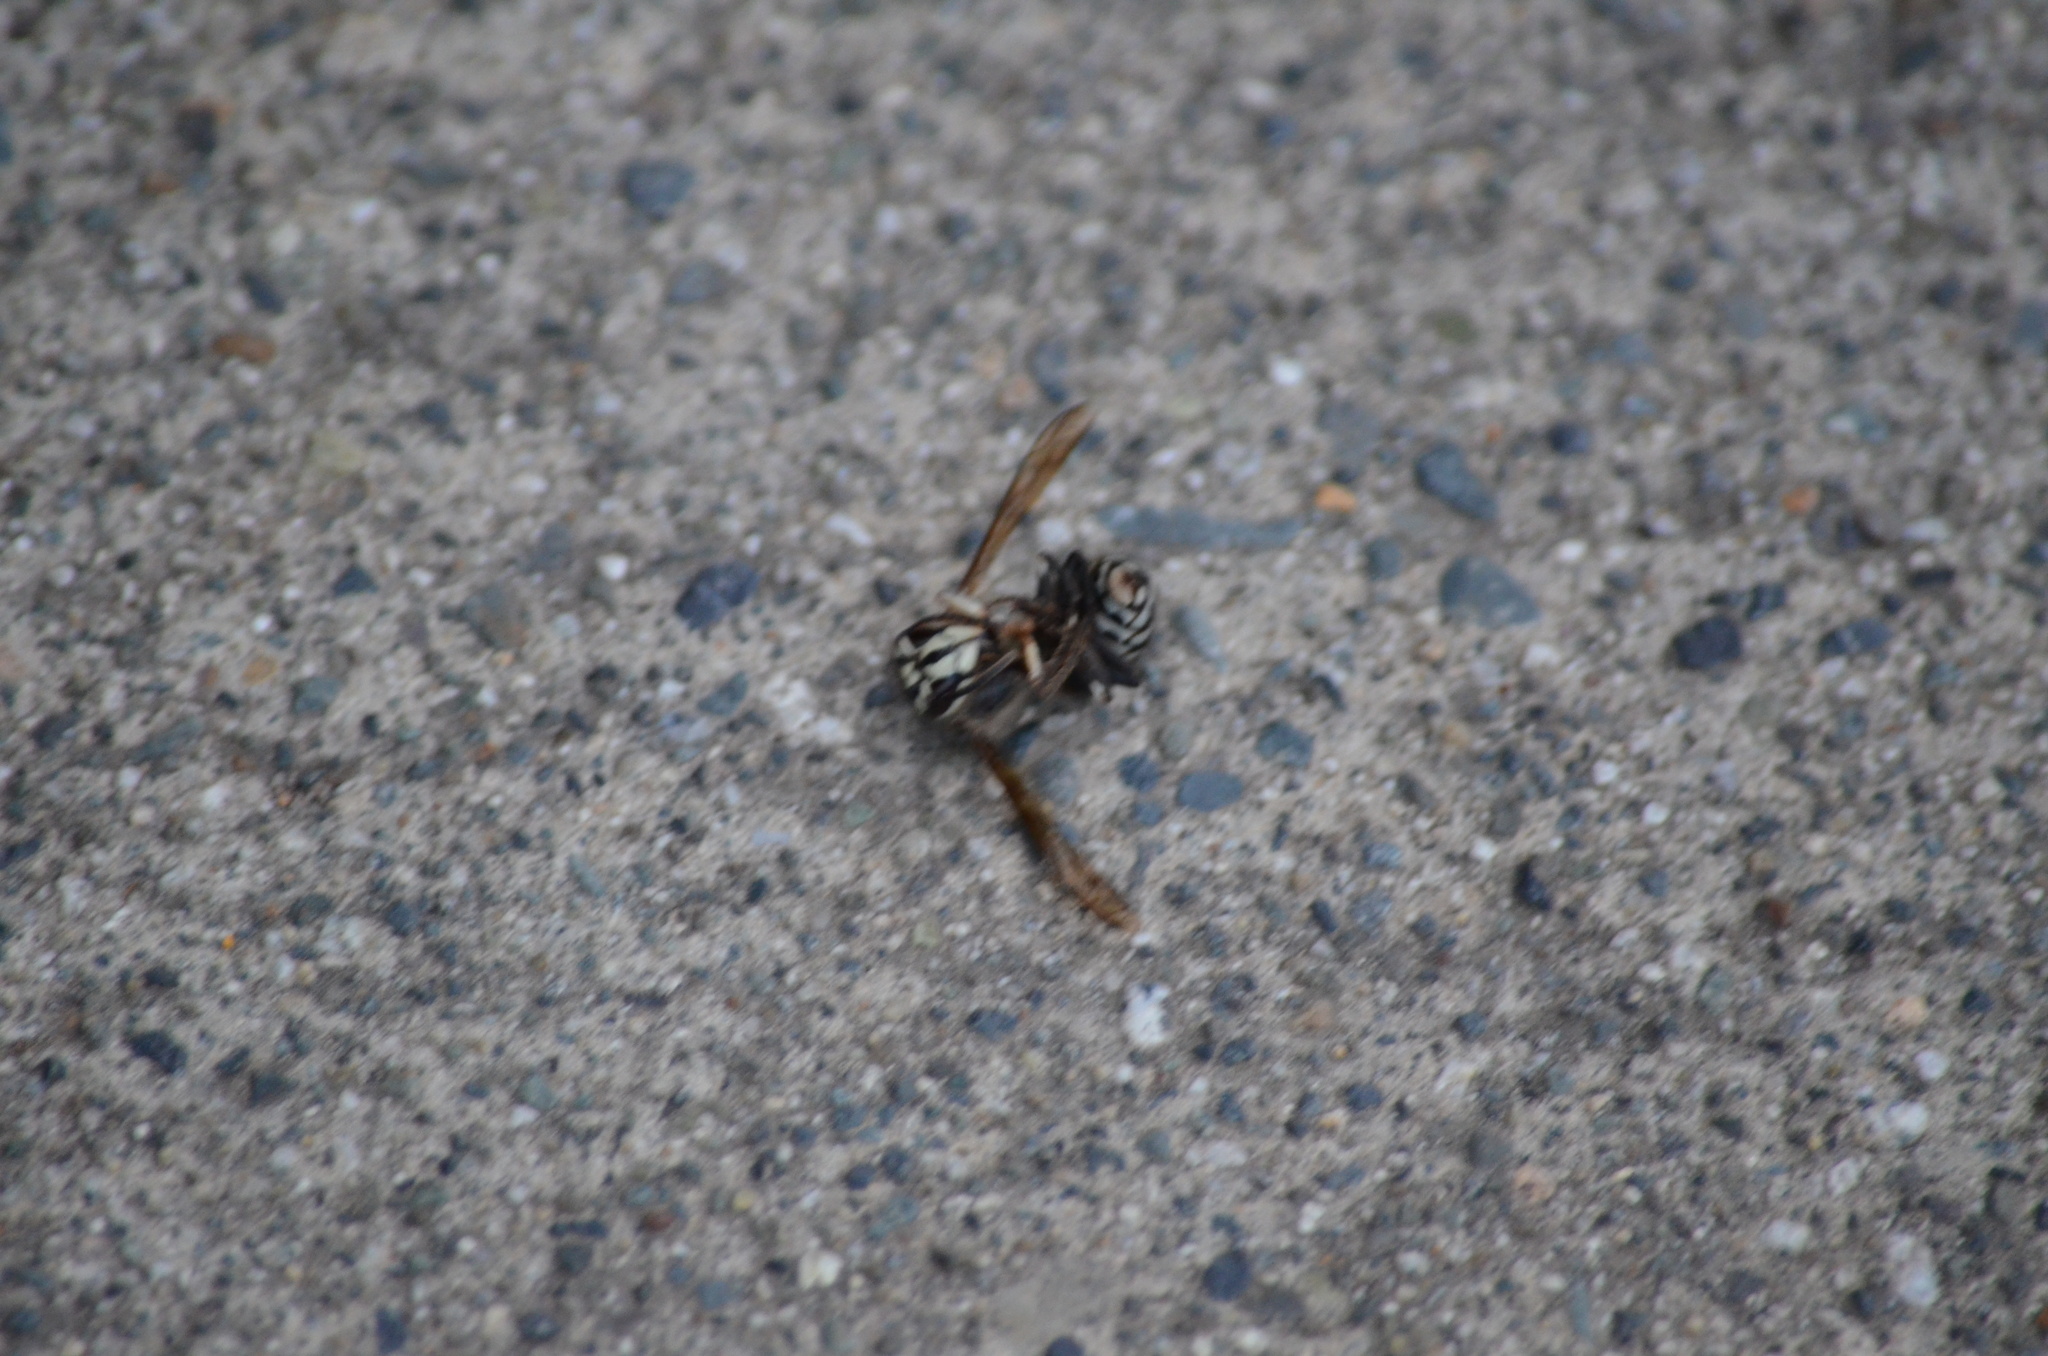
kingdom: Animalia
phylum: Arthropoda
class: Insecta
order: Hymenoptera
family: Vespidae
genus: Dolichovespula
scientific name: Dolichovespula maculata
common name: Bald-faced hornet
